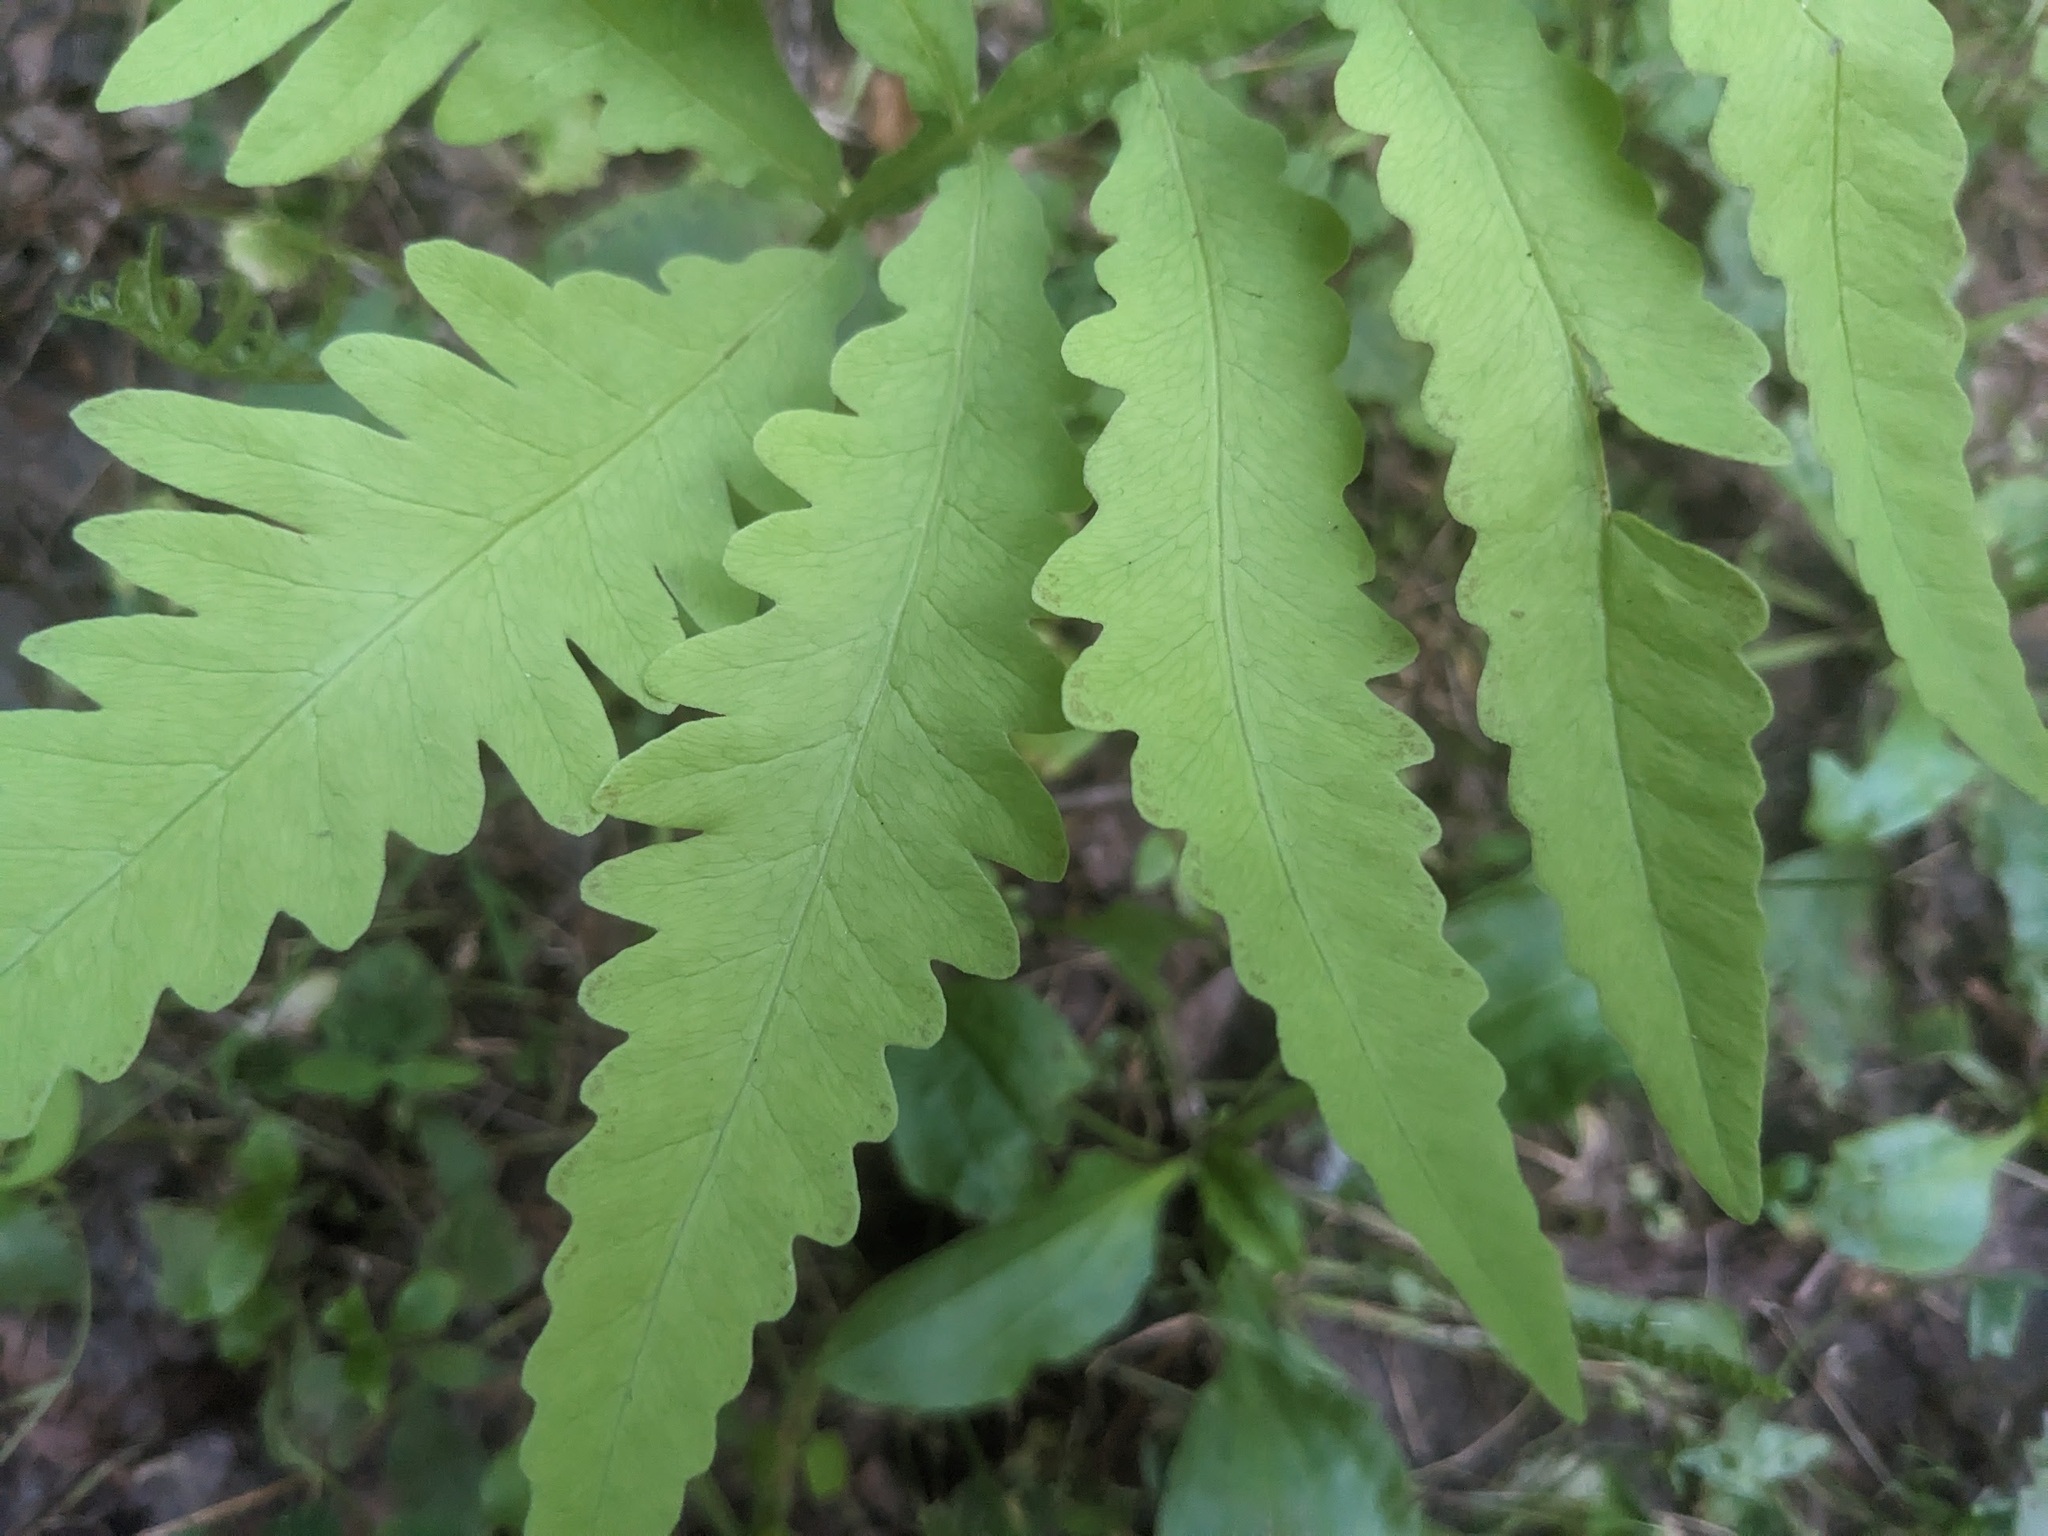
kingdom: Plantae
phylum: Tracheophyta
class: Polypodiopsida
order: Polypodiales
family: Onocleaceae
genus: Onoclea
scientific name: Onoclea sensibilis
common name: Sensitive fern
